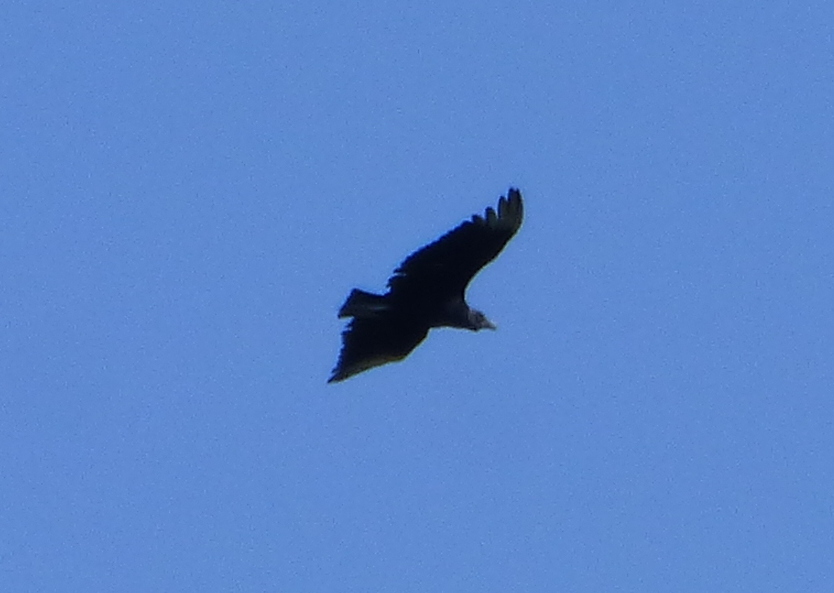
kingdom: Animalia
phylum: Chordata
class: Aves
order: Accipitriformes
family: Cathartidae
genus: Coragyps
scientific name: Coragyps atratus
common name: Black vulture
